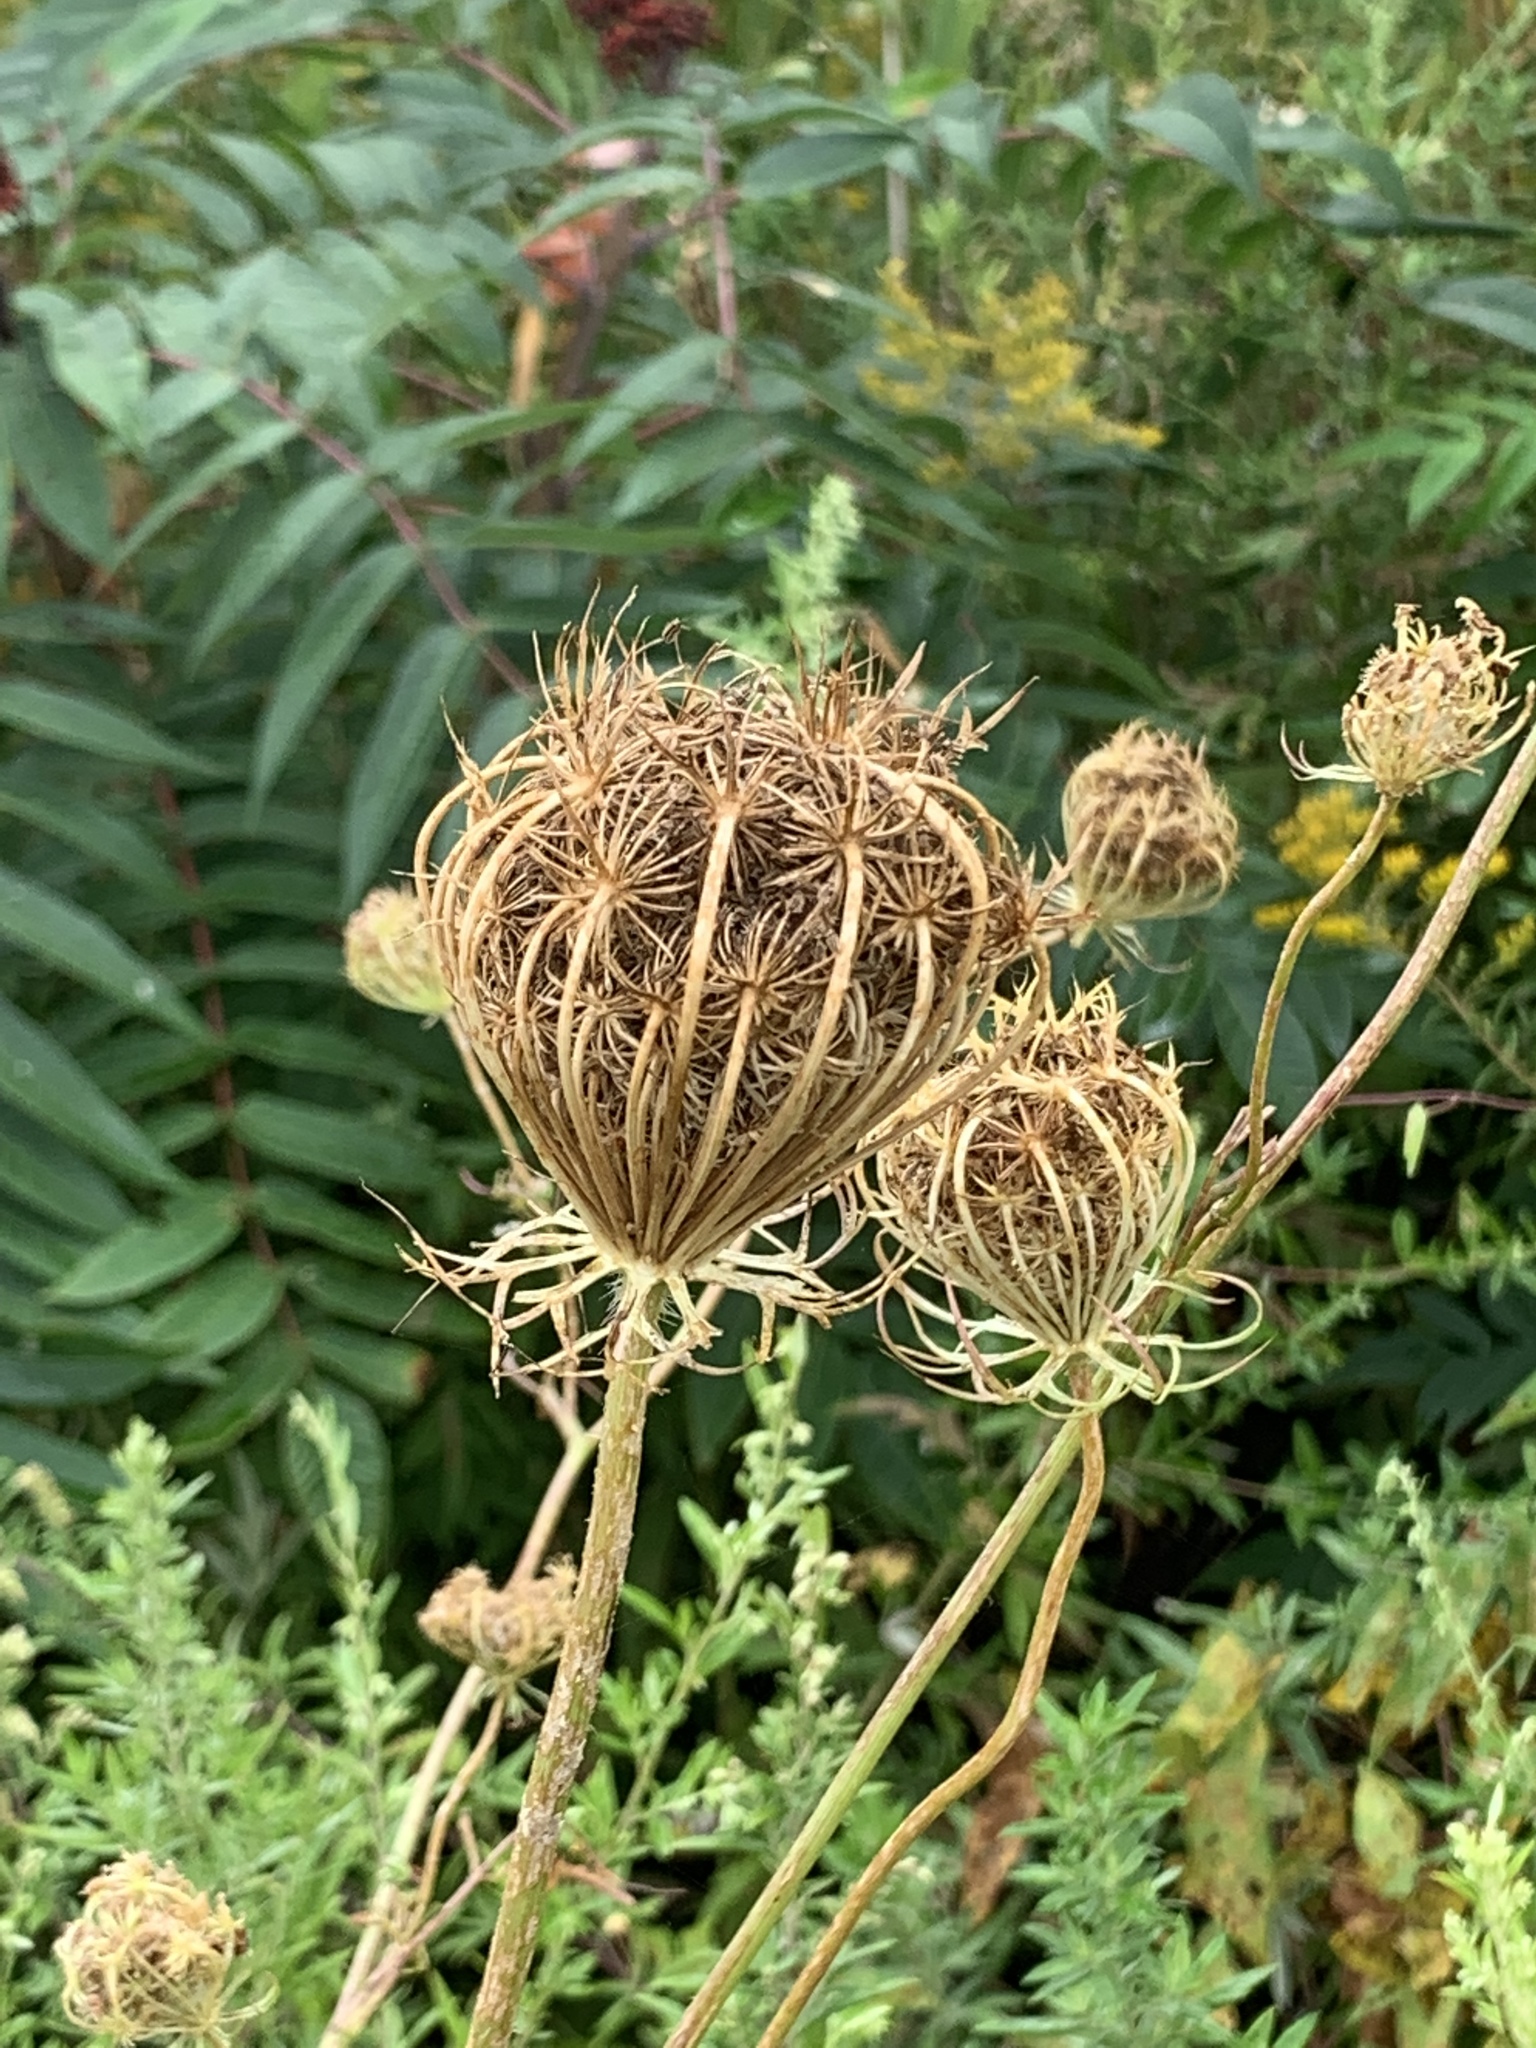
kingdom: Plantae
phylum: Tracheophyta
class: Magnoliopsida
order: Apiales
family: Apiaceae
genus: Daucus
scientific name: Daucus carota
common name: Wild carrot
